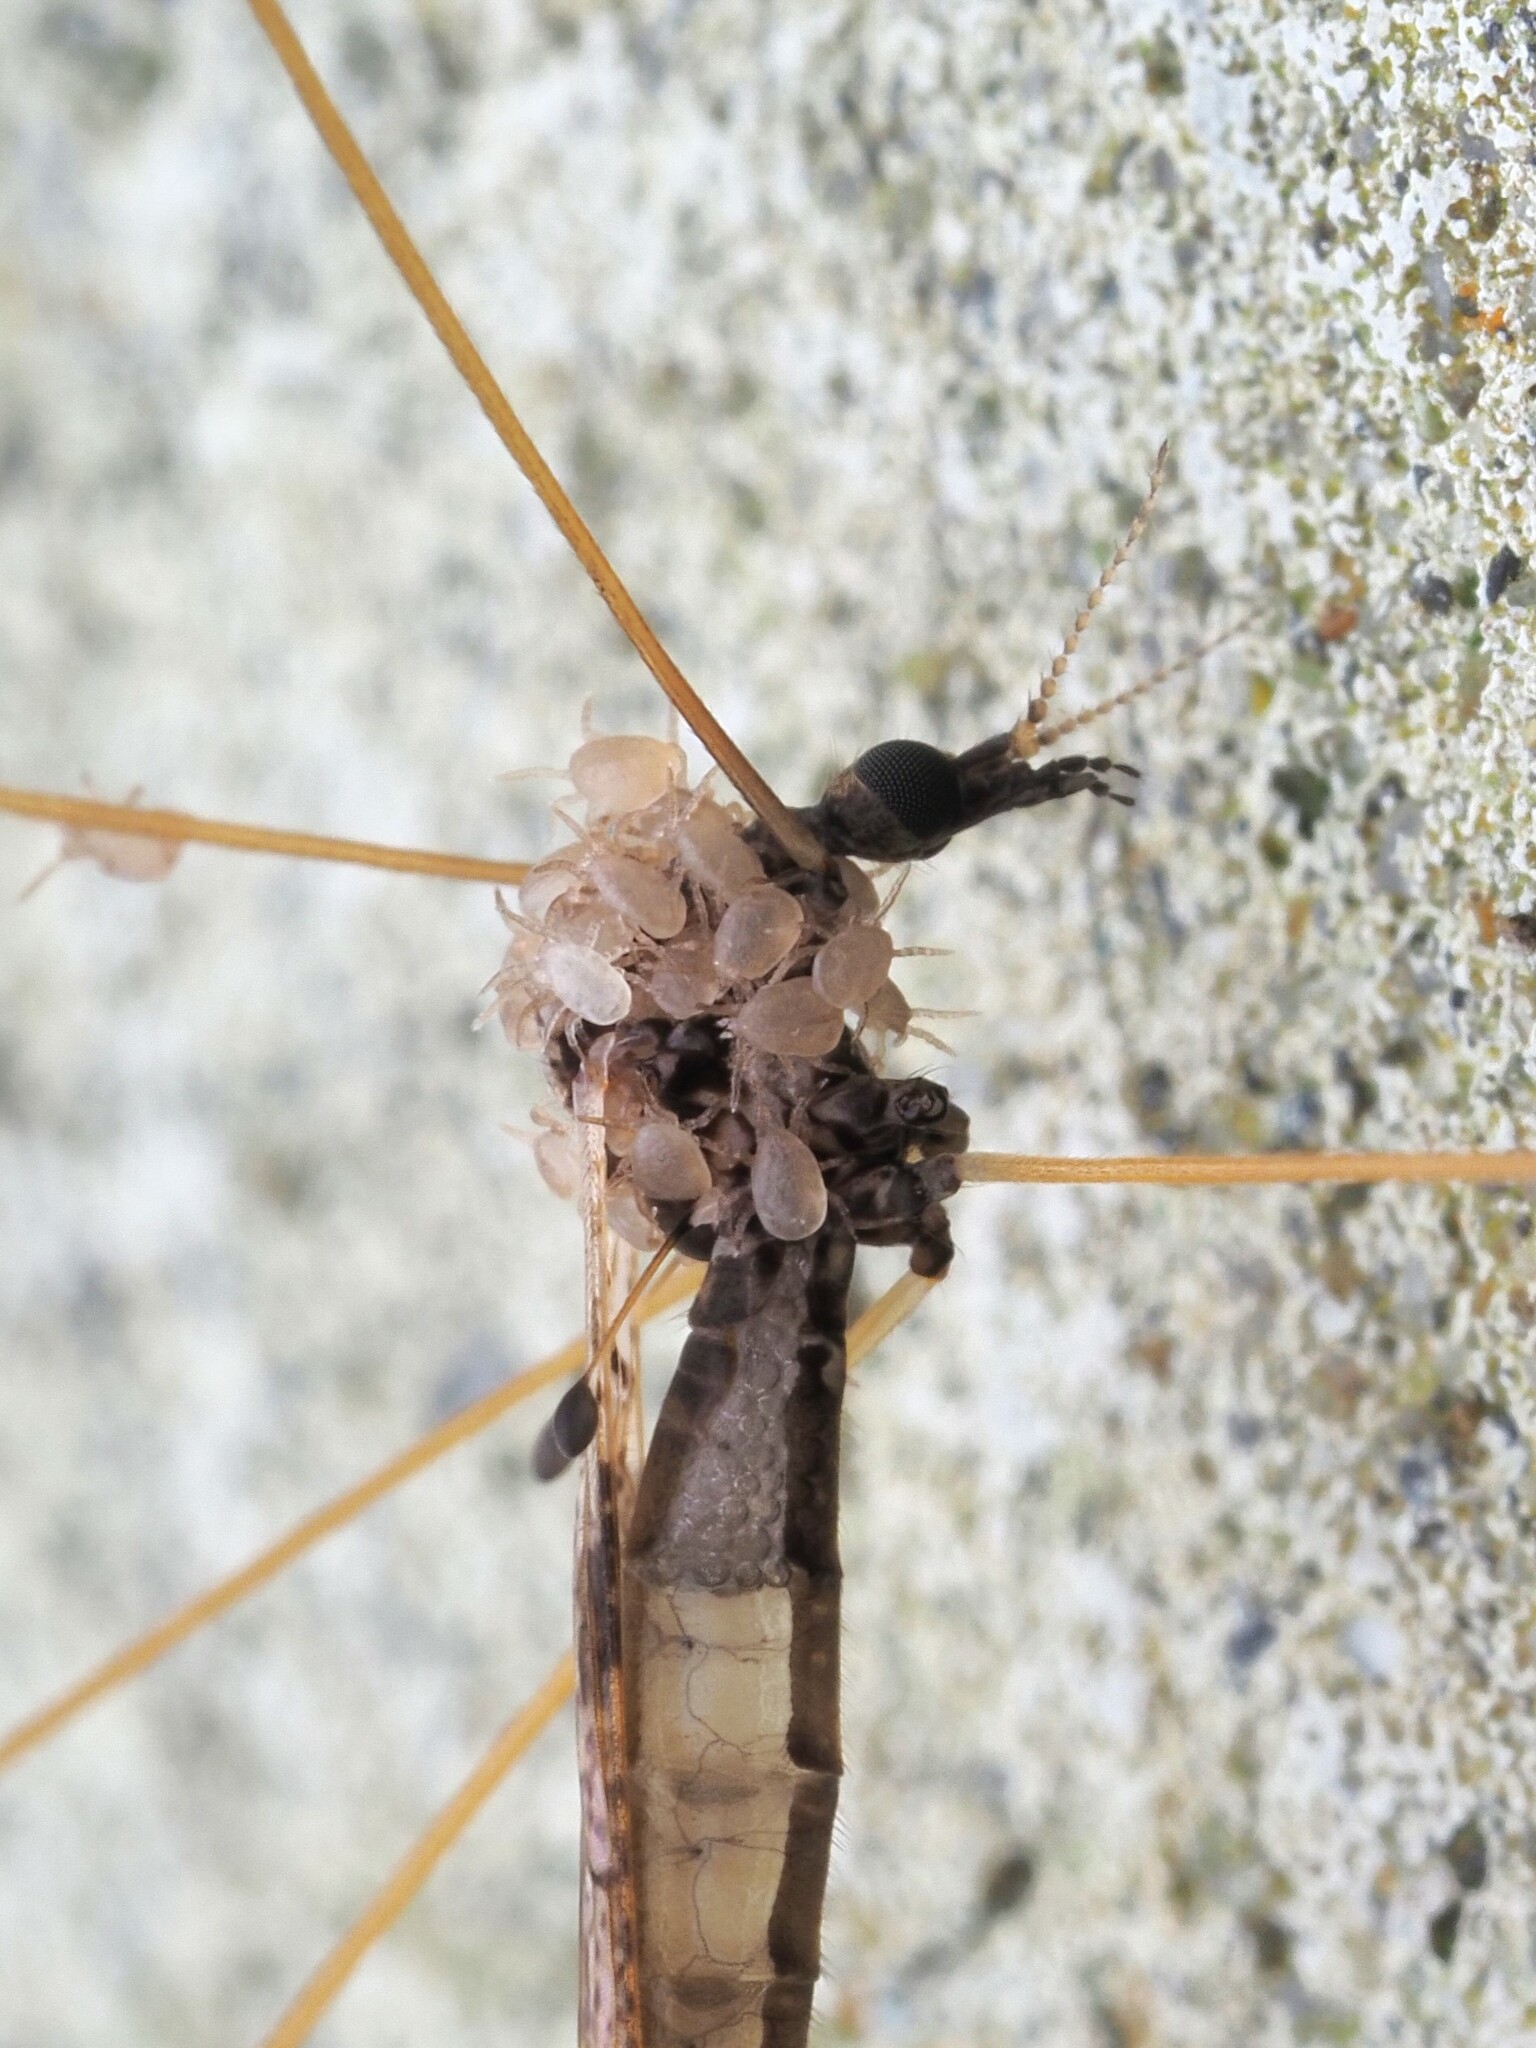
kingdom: Animalia
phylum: Arthropoda
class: Insecta
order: Diptera
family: Limoniidae
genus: Discobola
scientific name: Discobola striata
